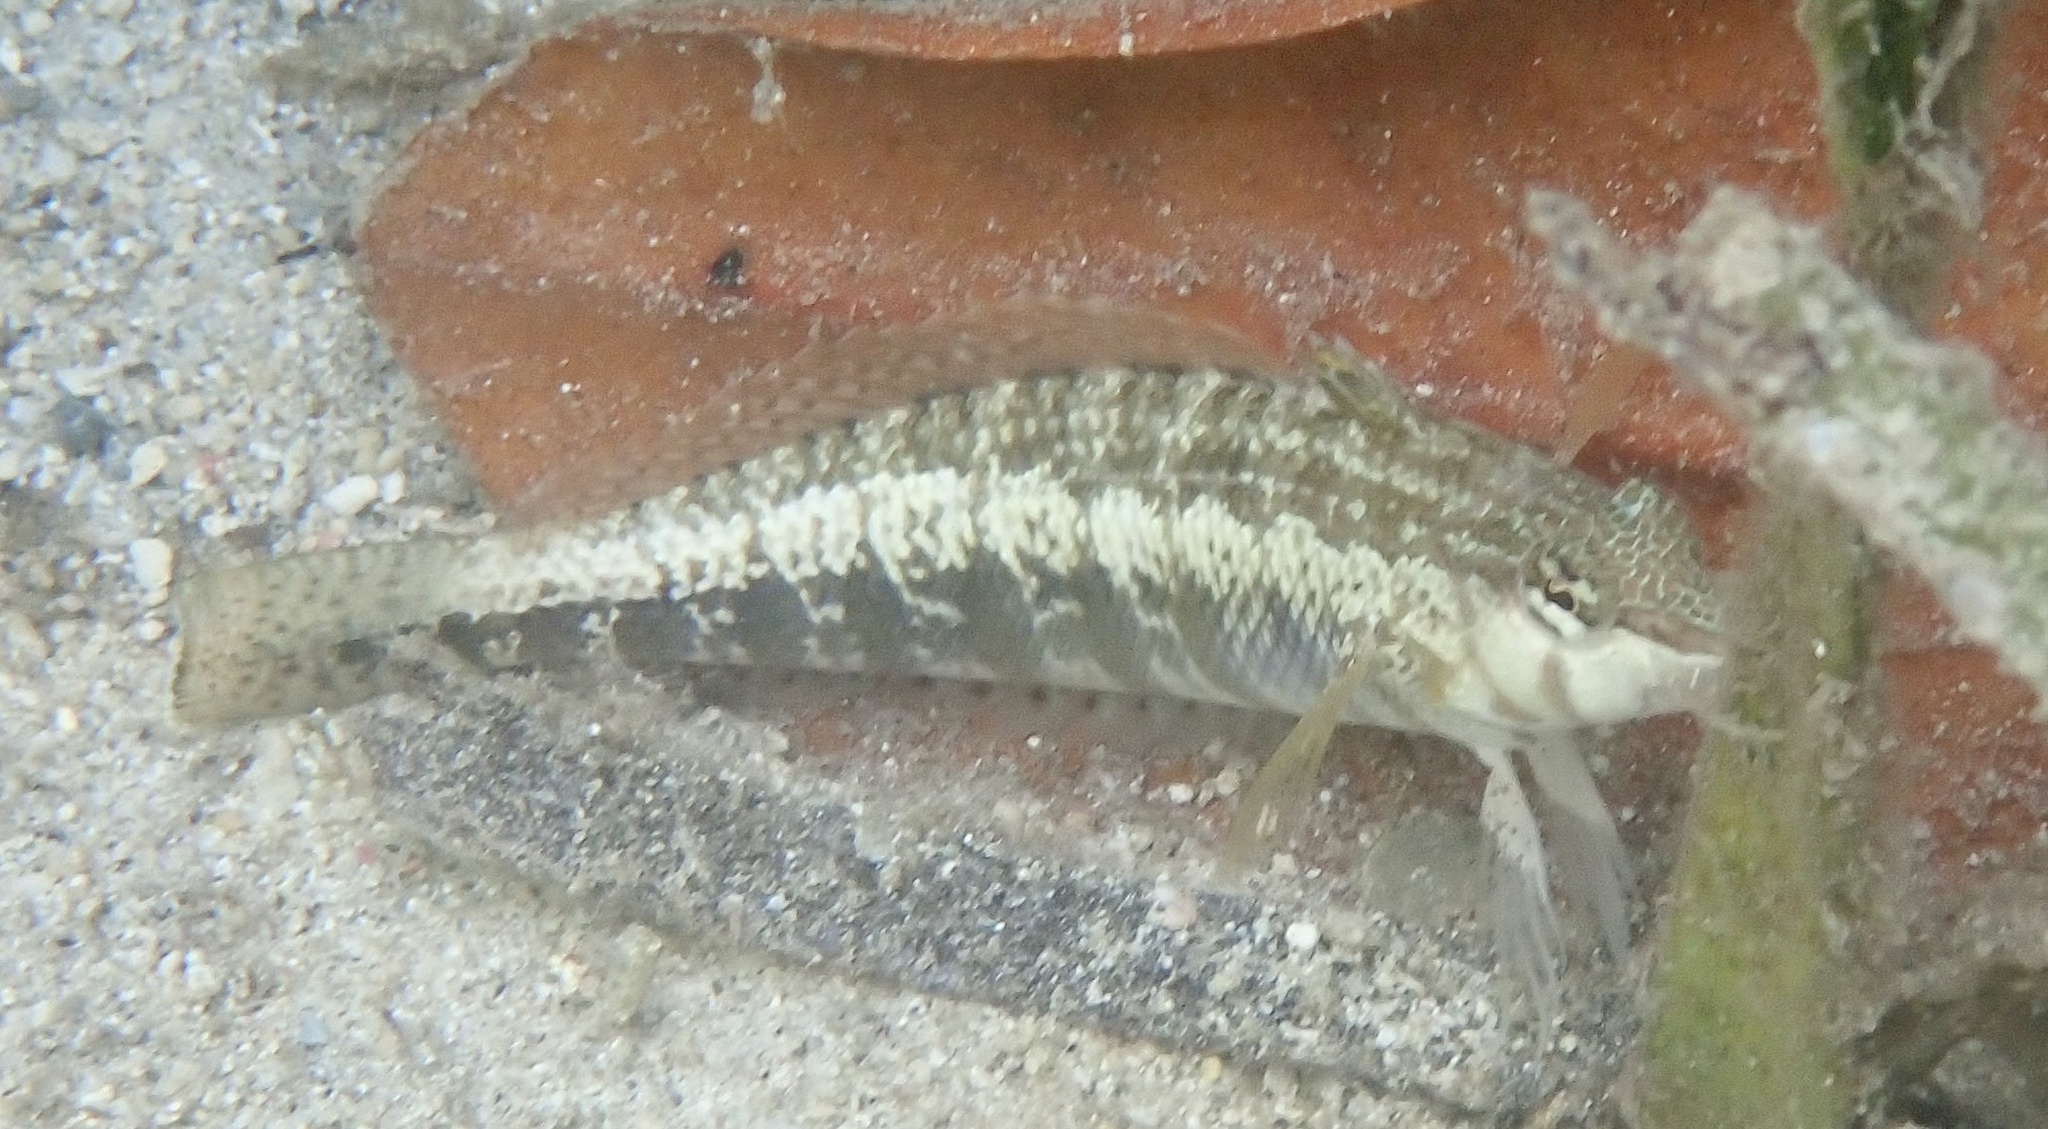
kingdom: Animalia
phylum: Chordata
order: Perciformes
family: Pinguipedidae
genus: Parapercis
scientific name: Parapercis cylindrica
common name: Cylindrical sandperch
